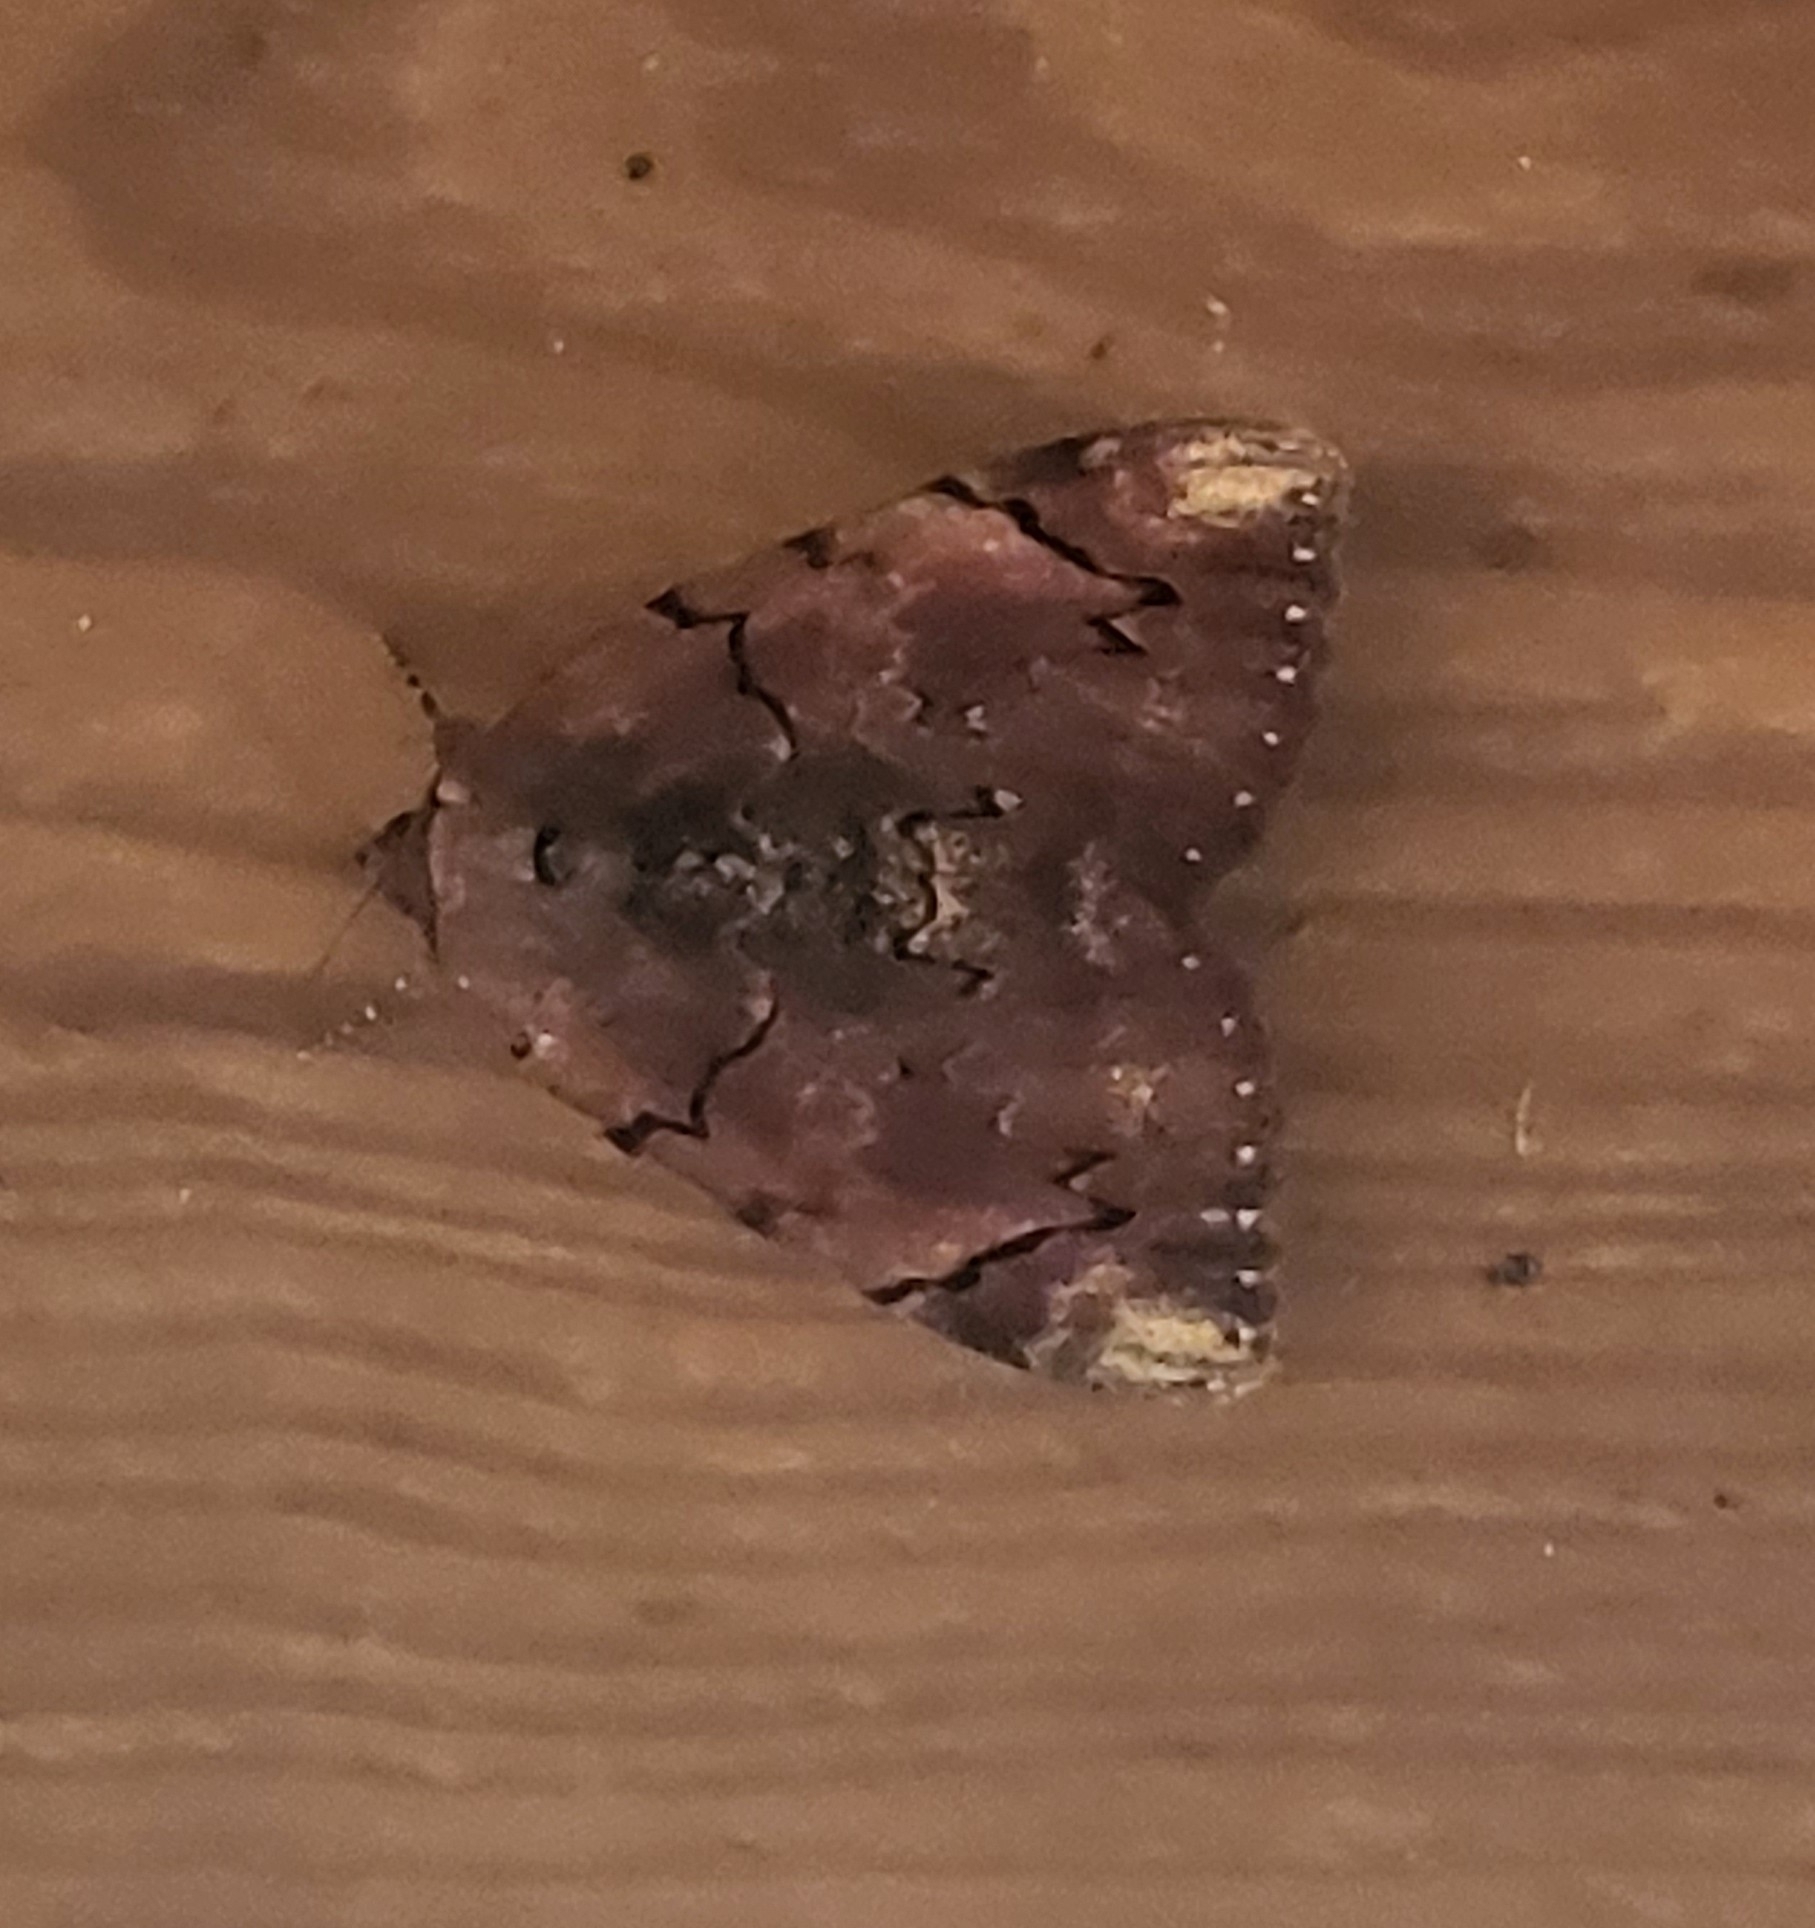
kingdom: Animalia
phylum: Arthropoda
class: Insecta
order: Lepidoptera
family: Erebidae
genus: Catocala
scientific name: Catocala carissima
